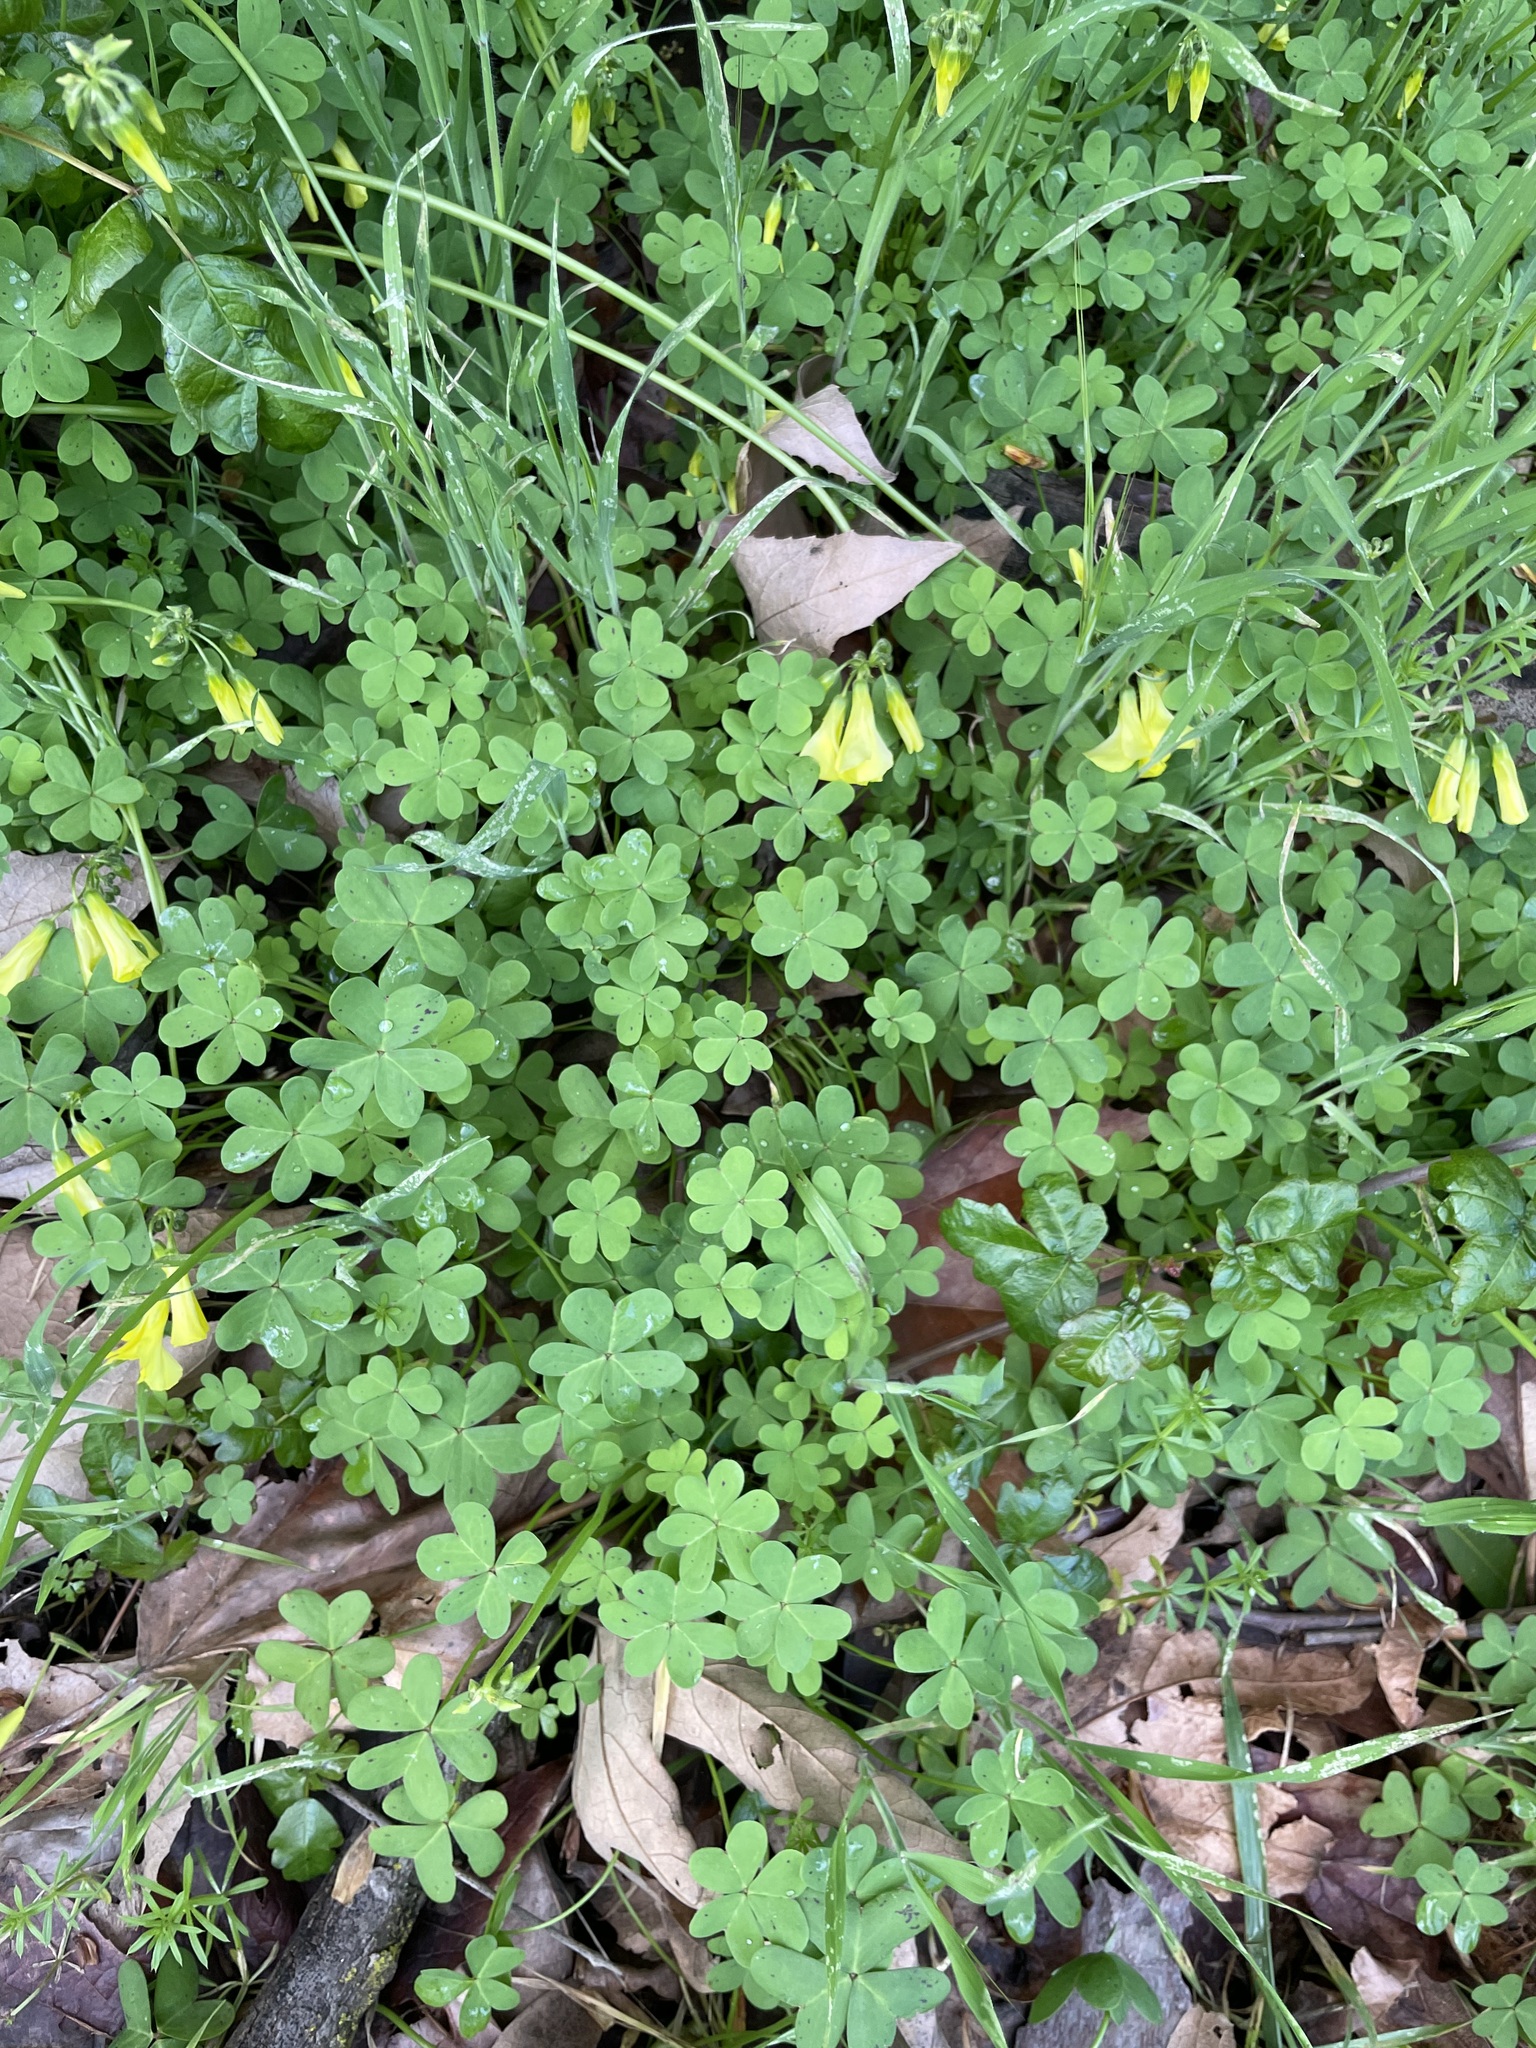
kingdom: Plantae
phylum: Tracheophyta
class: Magnoliopsida
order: Oxalidales
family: Oxalidaceae
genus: Oxalis
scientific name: Oxalis pes-caprae
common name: Bermuda-buttercup
